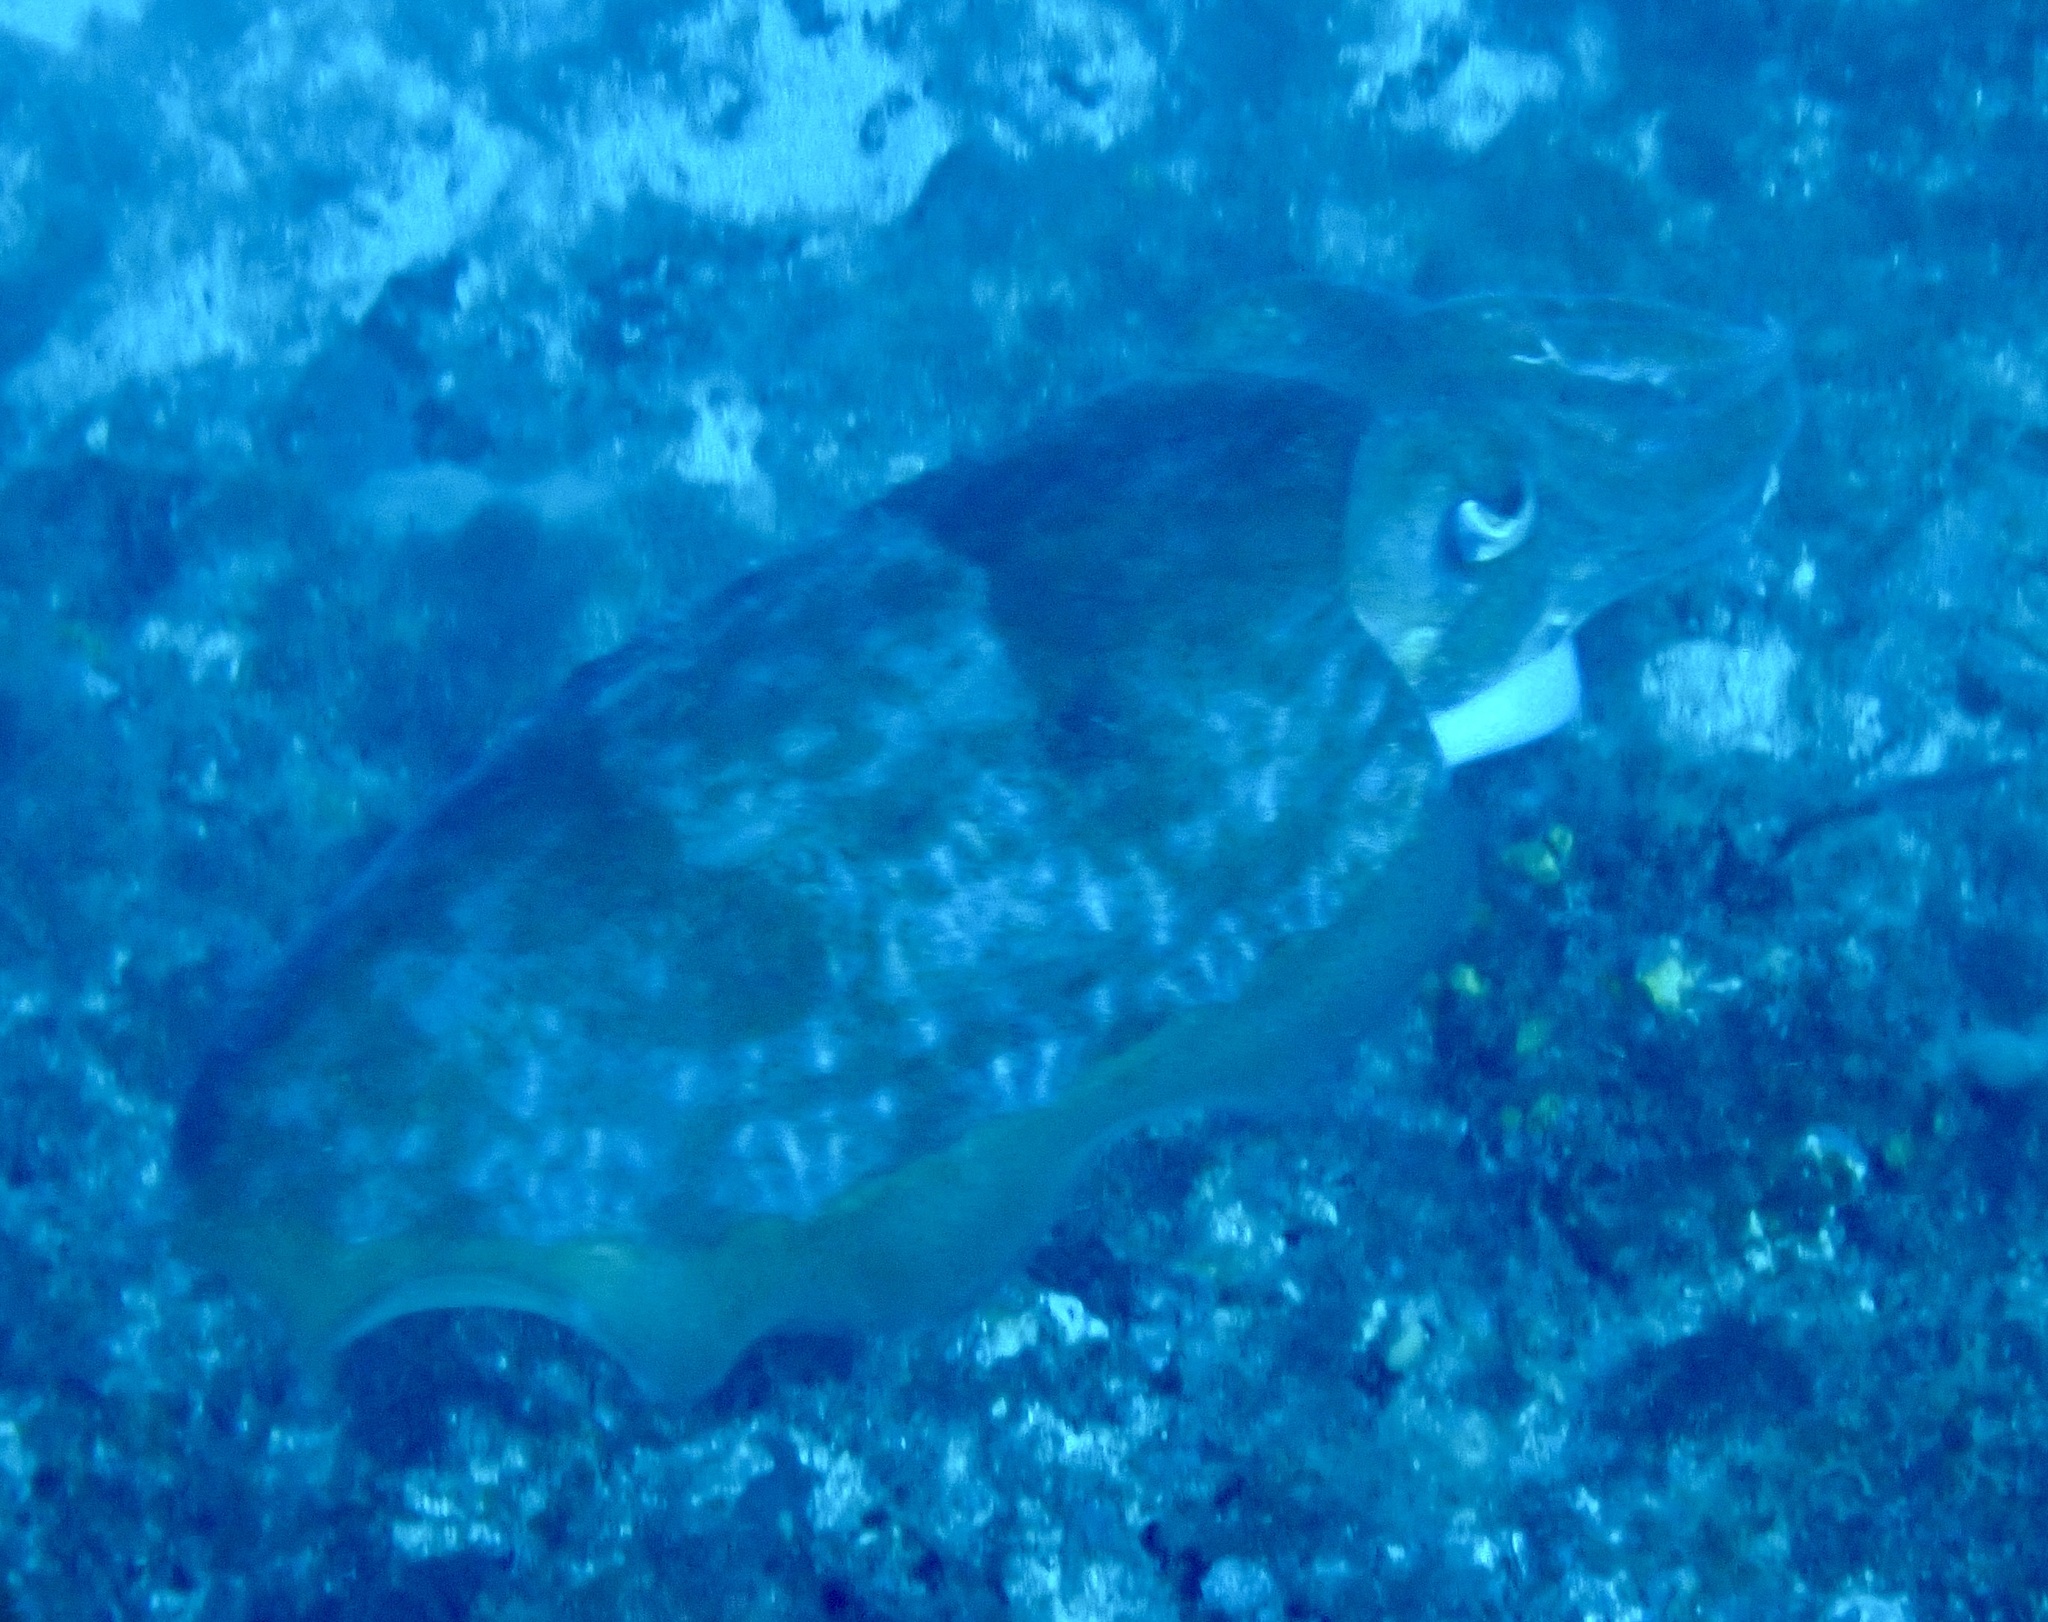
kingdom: Animalia
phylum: Mollusca
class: Cephalopoda
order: Sepiida
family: Sepiidae
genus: Sepia
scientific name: Sepia hierredda
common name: Giant african cuttlefish
